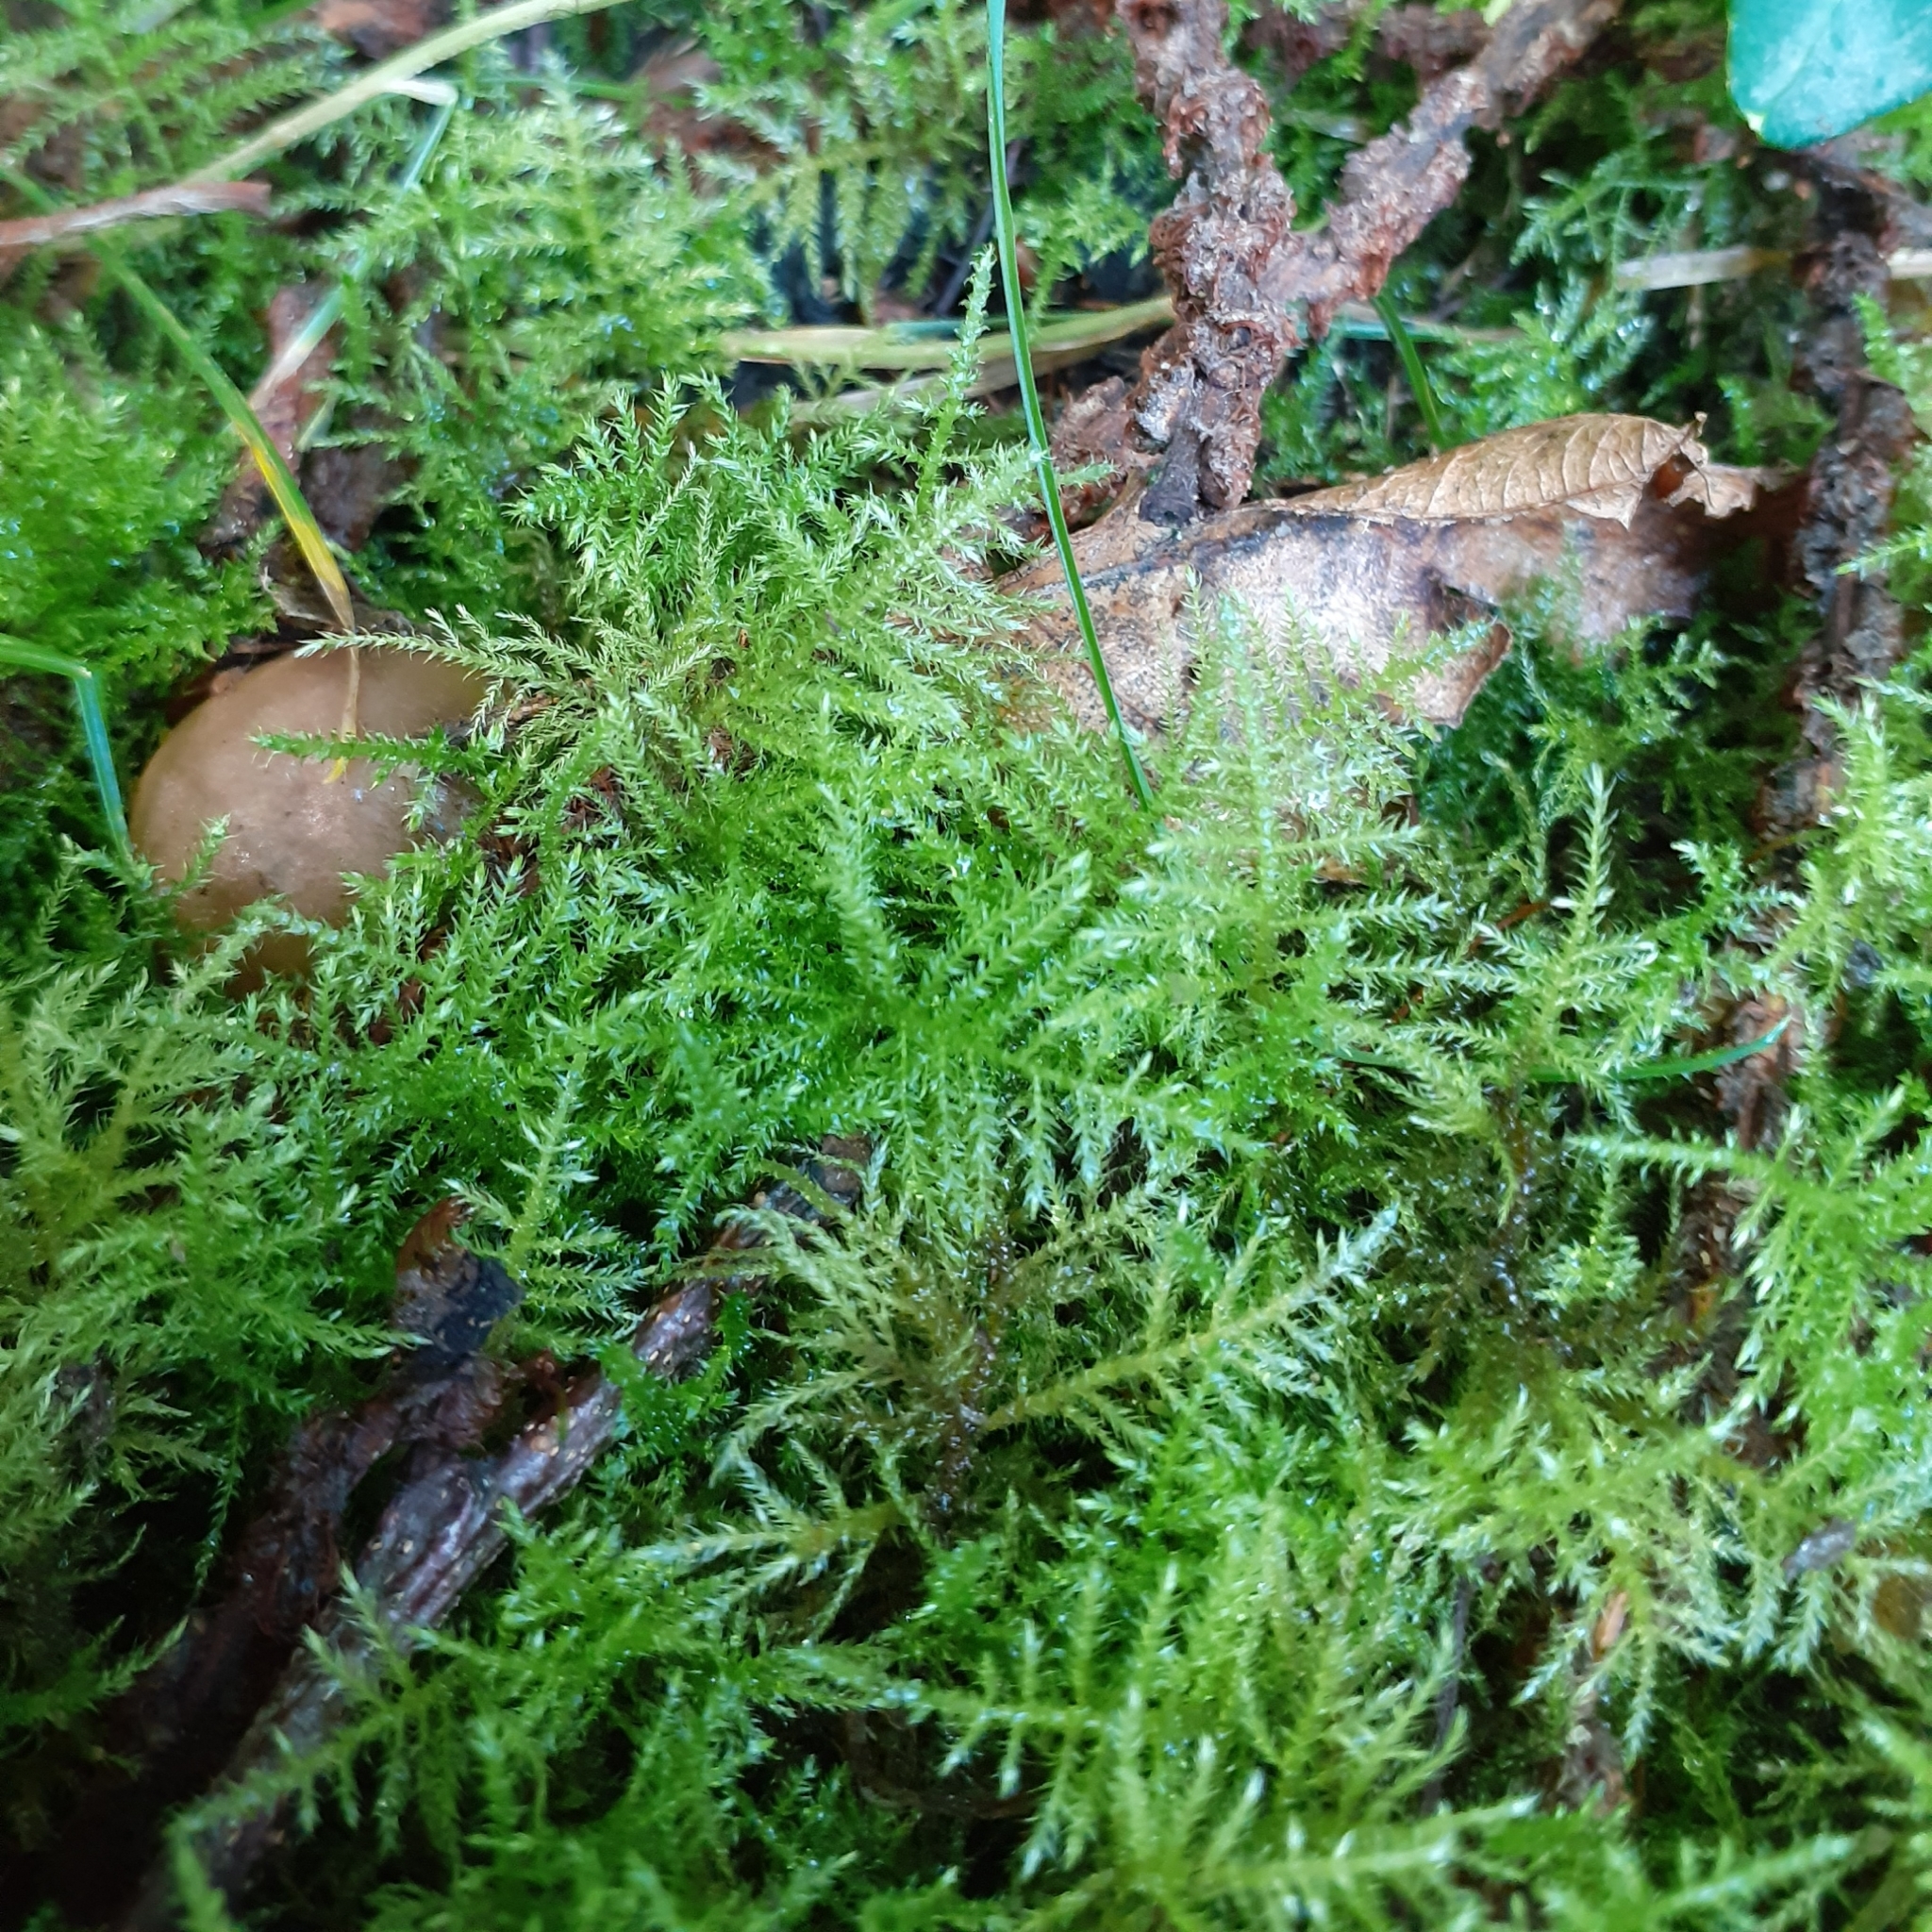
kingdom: Plantae
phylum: Bryophyta
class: Bryopsida
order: Hypnales
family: Brachytheciaceae
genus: Kindbergia
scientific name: Kindbergia praelonga
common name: Slender beaked moss
